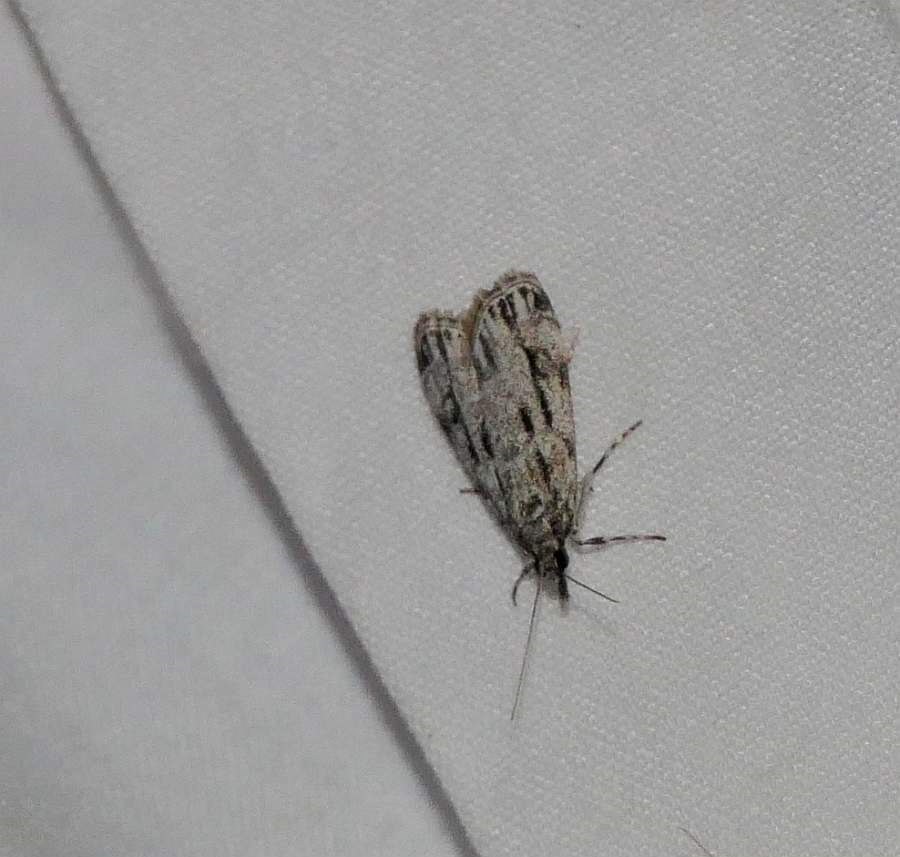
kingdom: Animalia
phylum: Arthropoda
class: Insecta
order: Lepidoptera
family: Crambidae
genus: Eudonia
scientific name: Eudonia strigalis
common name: Striped eudonia moth
